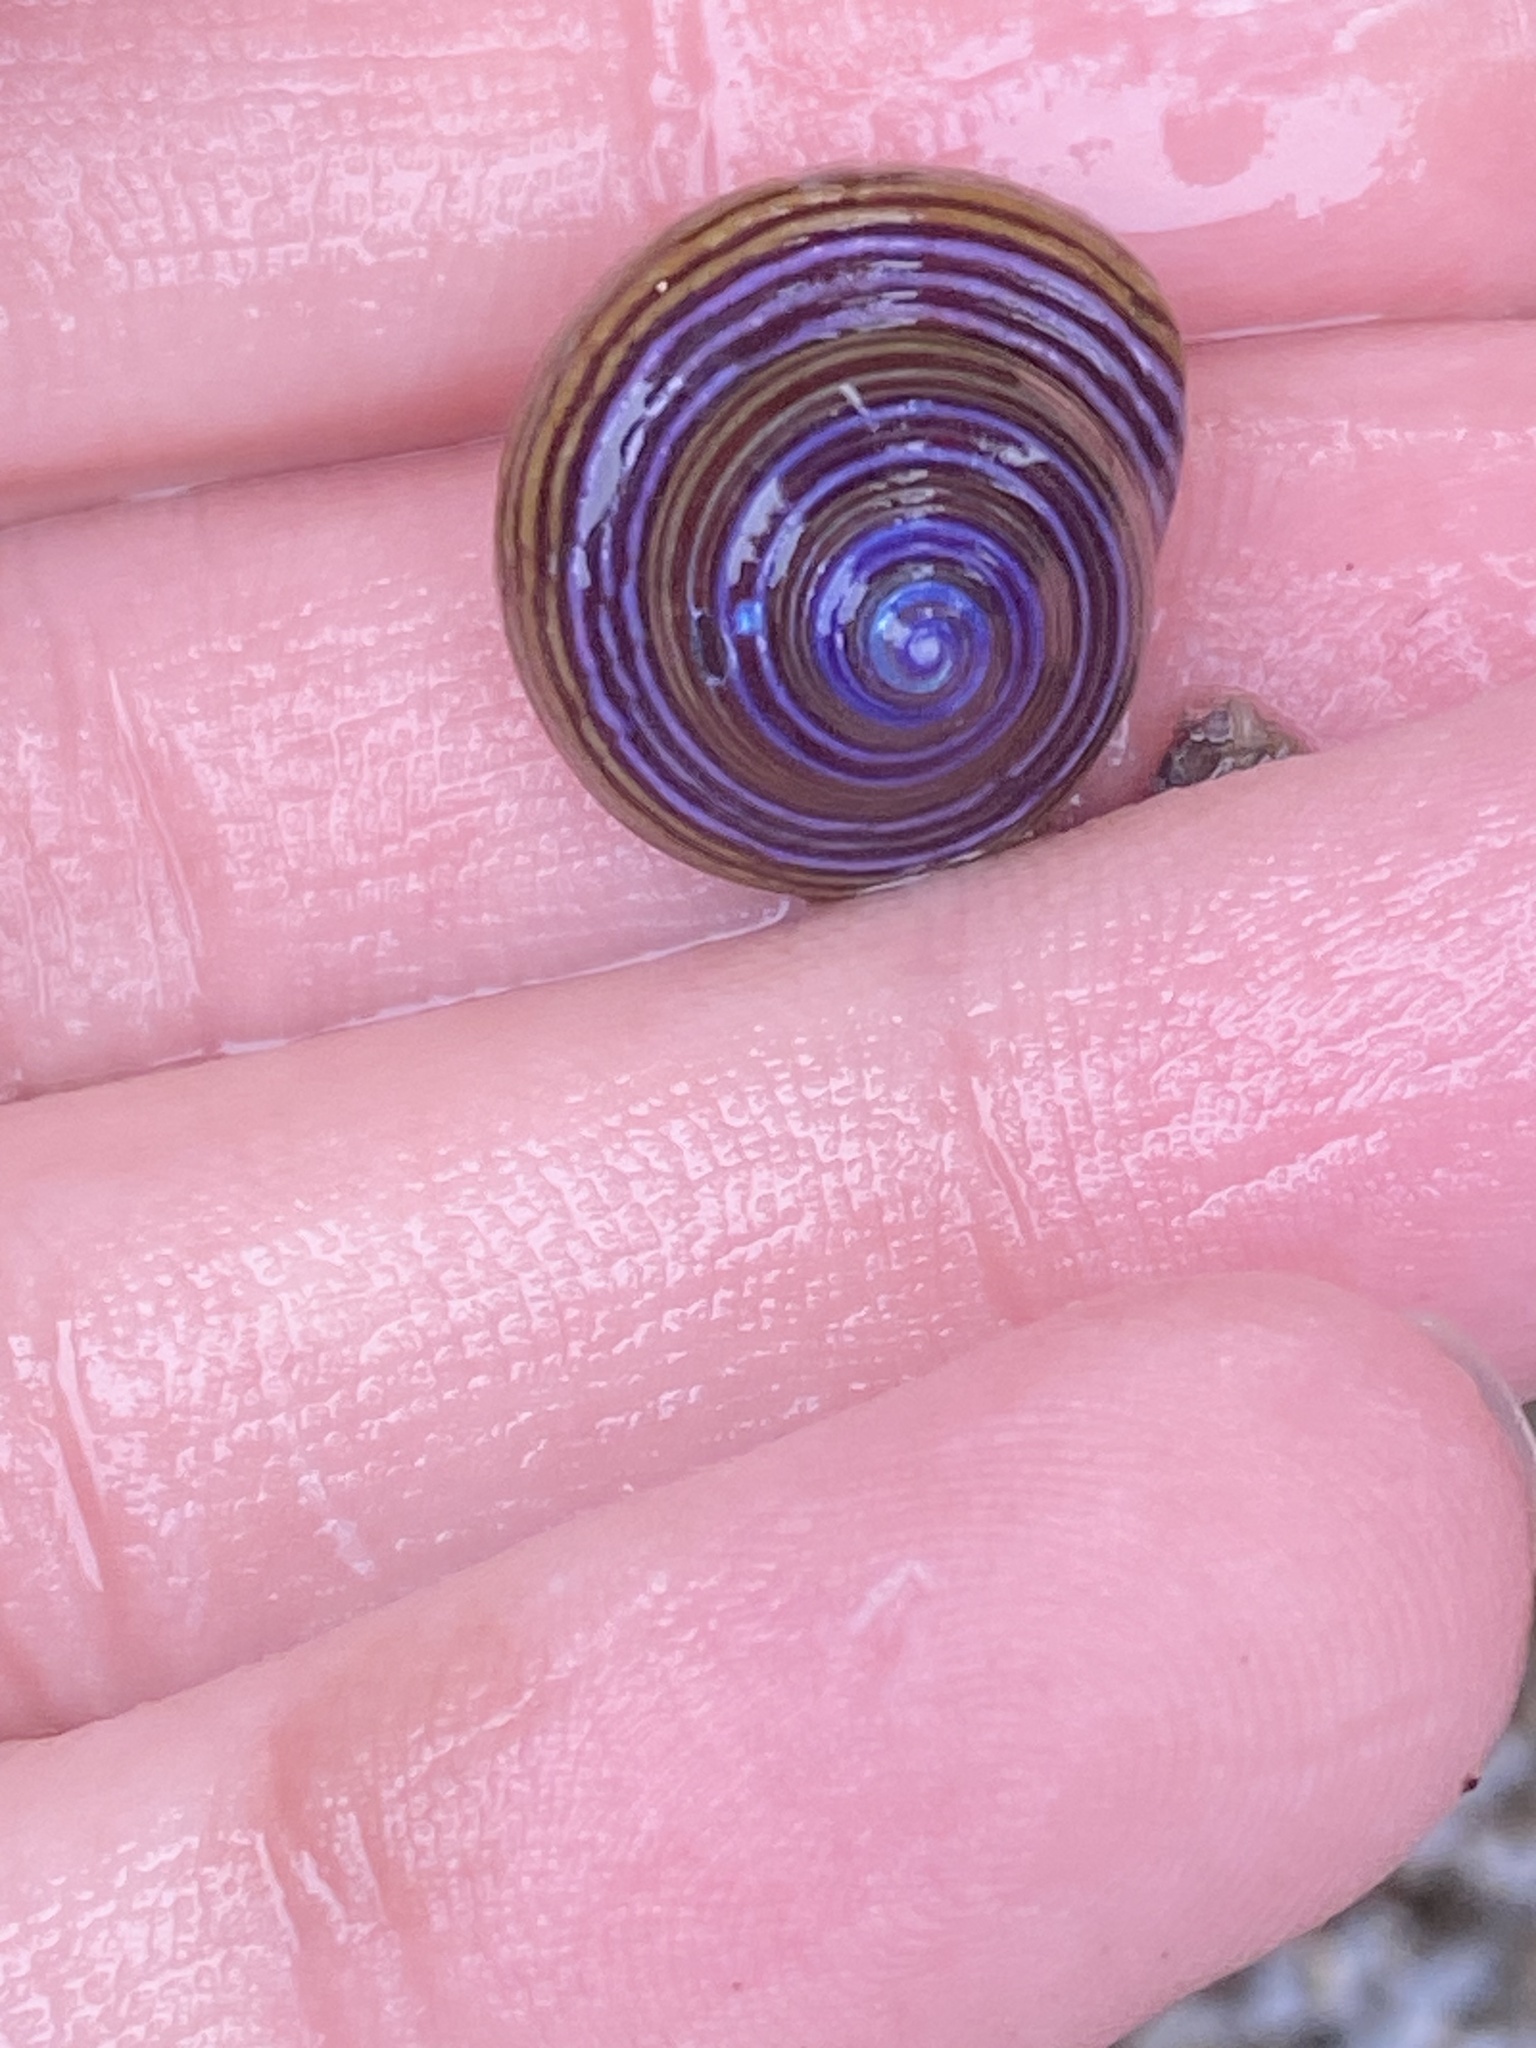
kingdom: Animalia
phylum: Mollusca
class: Gastropoda
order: Trochida
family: Calliostomatidae
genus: Calliostoma
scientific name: Calliostoma ligatum
